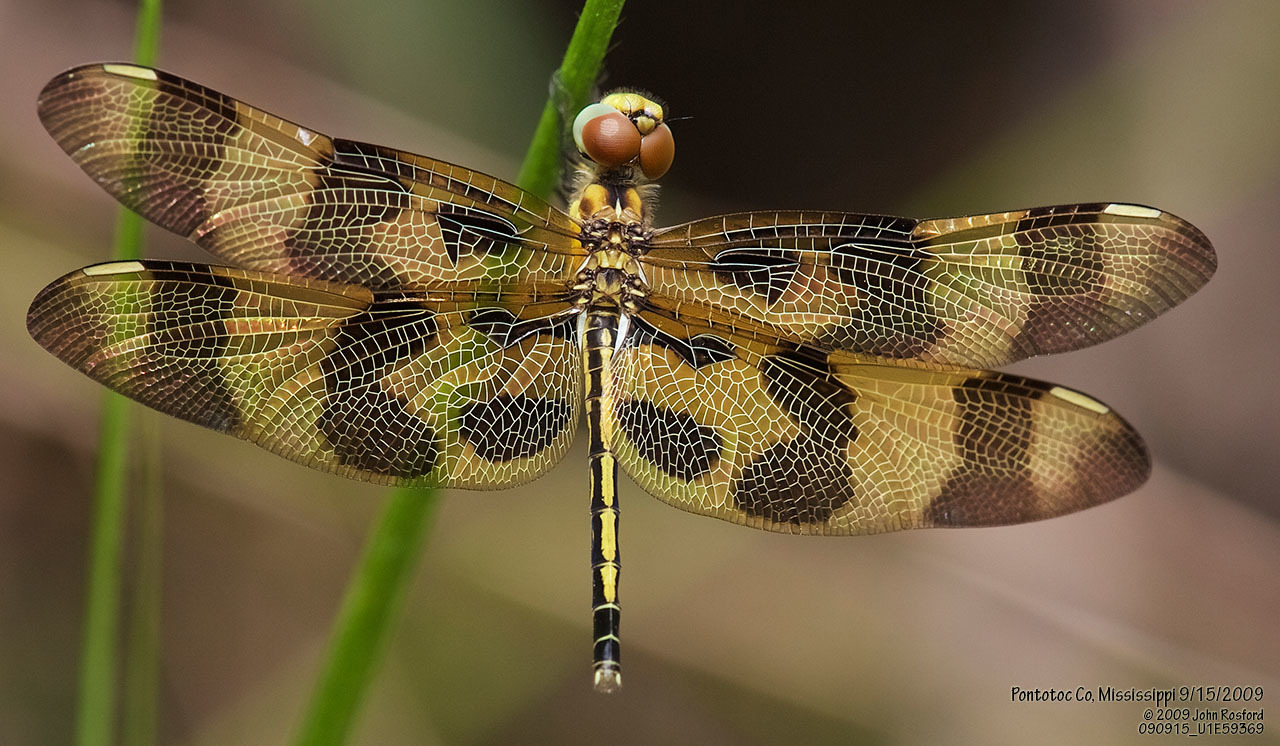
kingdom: Animalia
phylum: Arthropoda
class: Insecta
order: Odonata
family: Libellulidae
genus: Celithemis
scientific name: Celithemis eponina
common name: Halloween pennant
